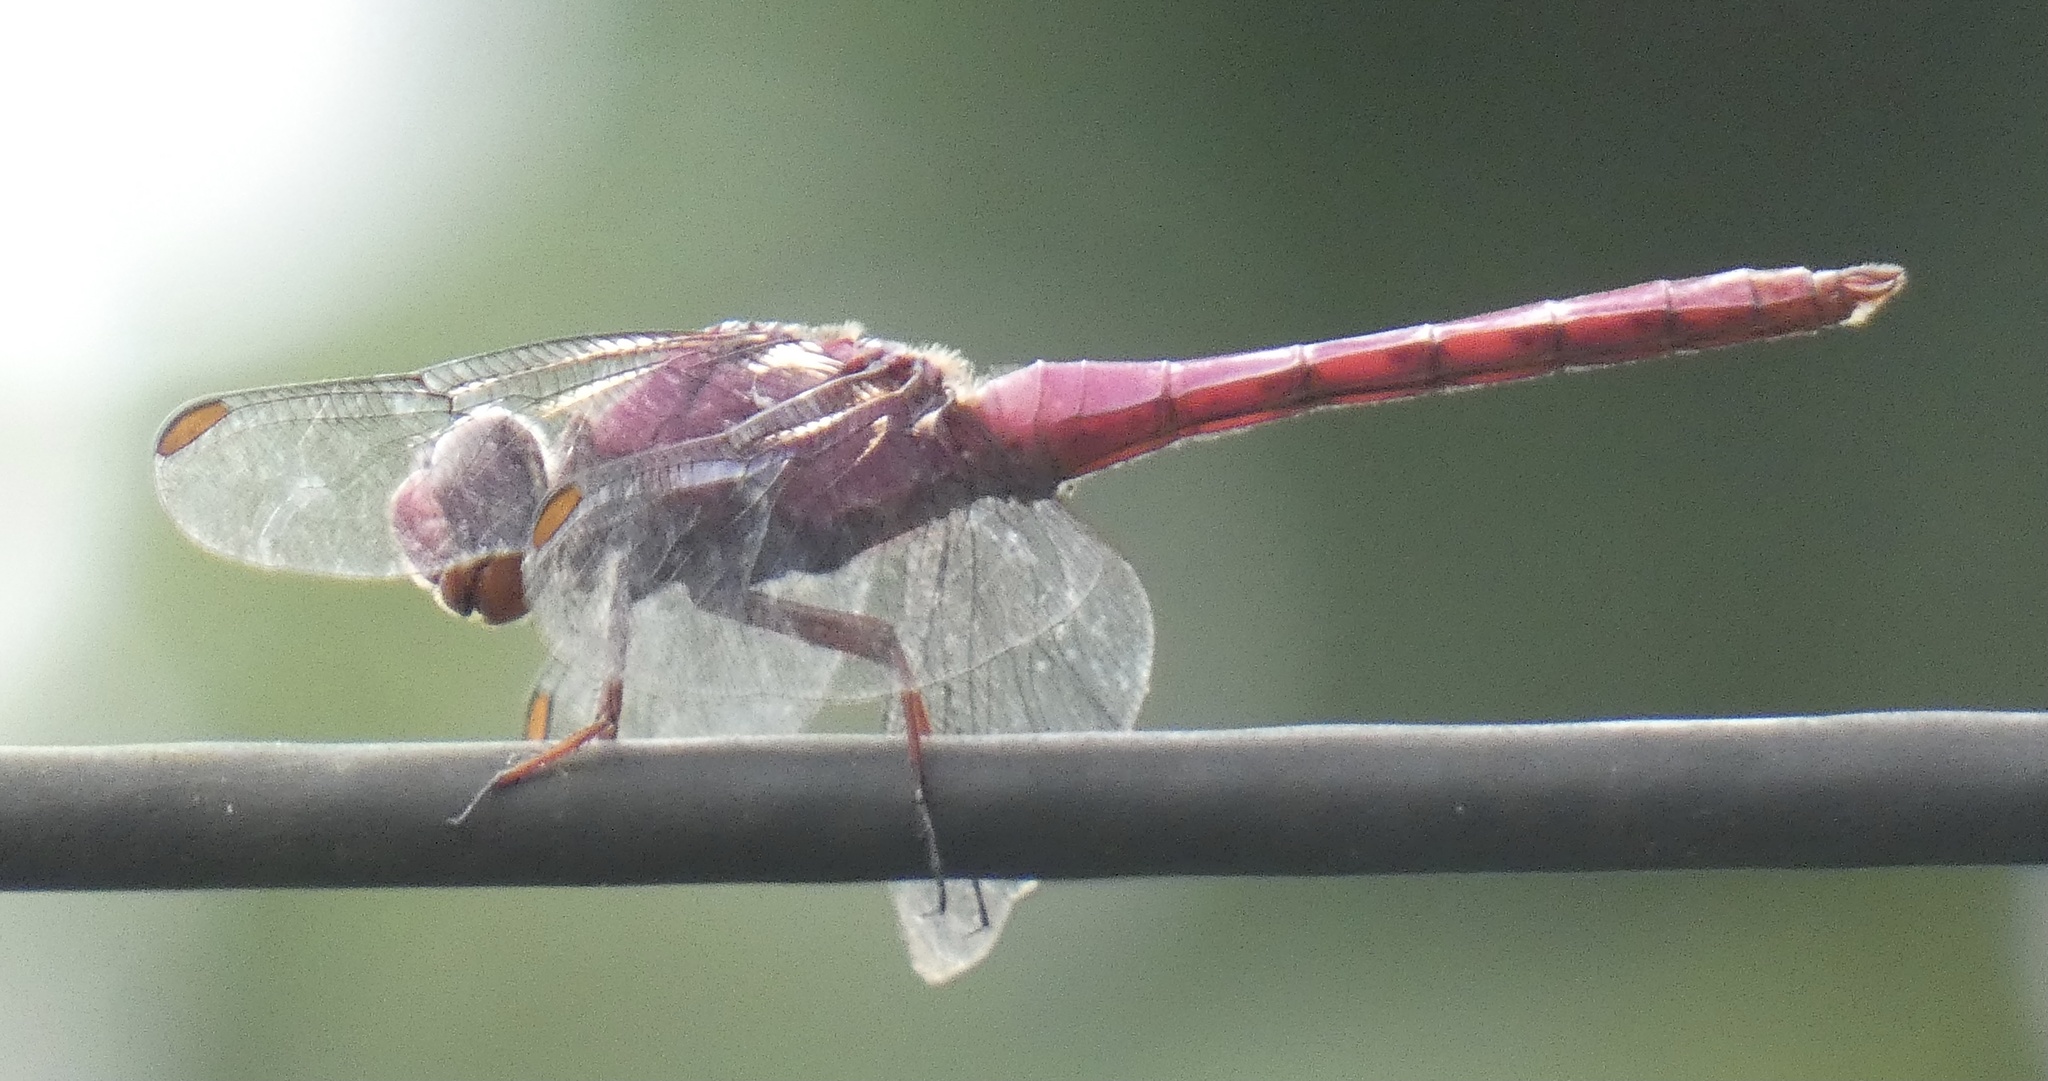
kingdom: Animalia
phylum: Arthropoda
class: Insecta
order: Odonata
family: Libellulidae
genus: Orthemis
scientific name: Orthemis discolor
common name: Carmine skimmer
